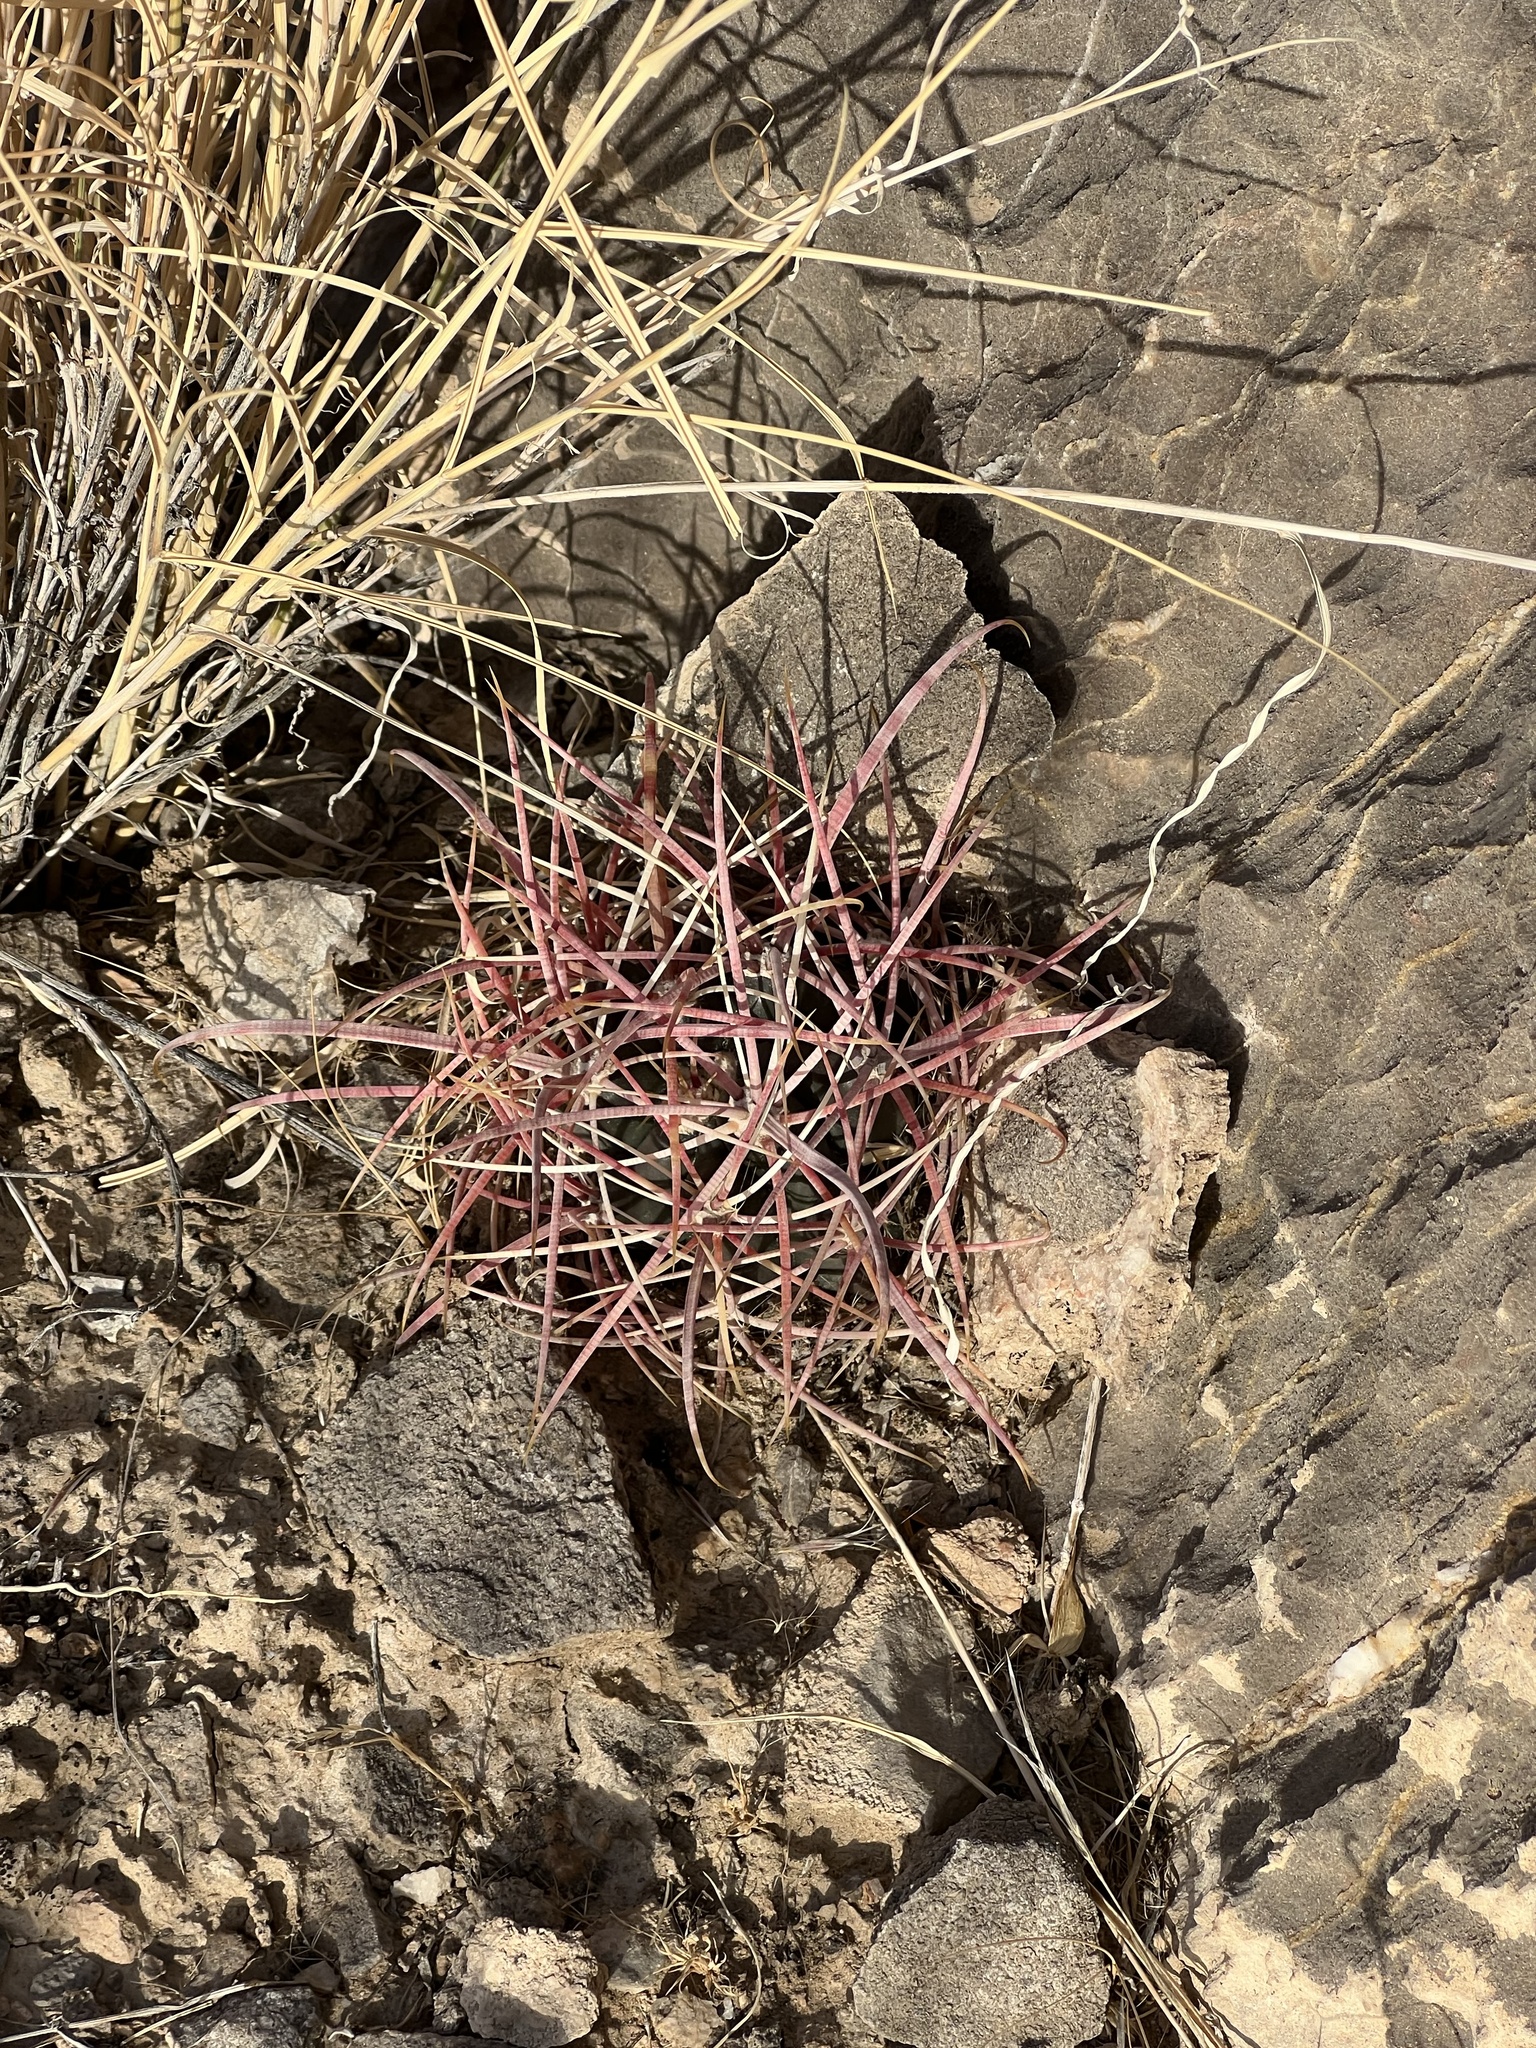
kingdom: Plantae
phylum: Tracheophyta
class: Magnoliopsida
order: Caryophyllales
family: Cactaceae
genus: Ferocactus
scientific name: Ferocactus cylindraceus
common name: California barrel cactus
